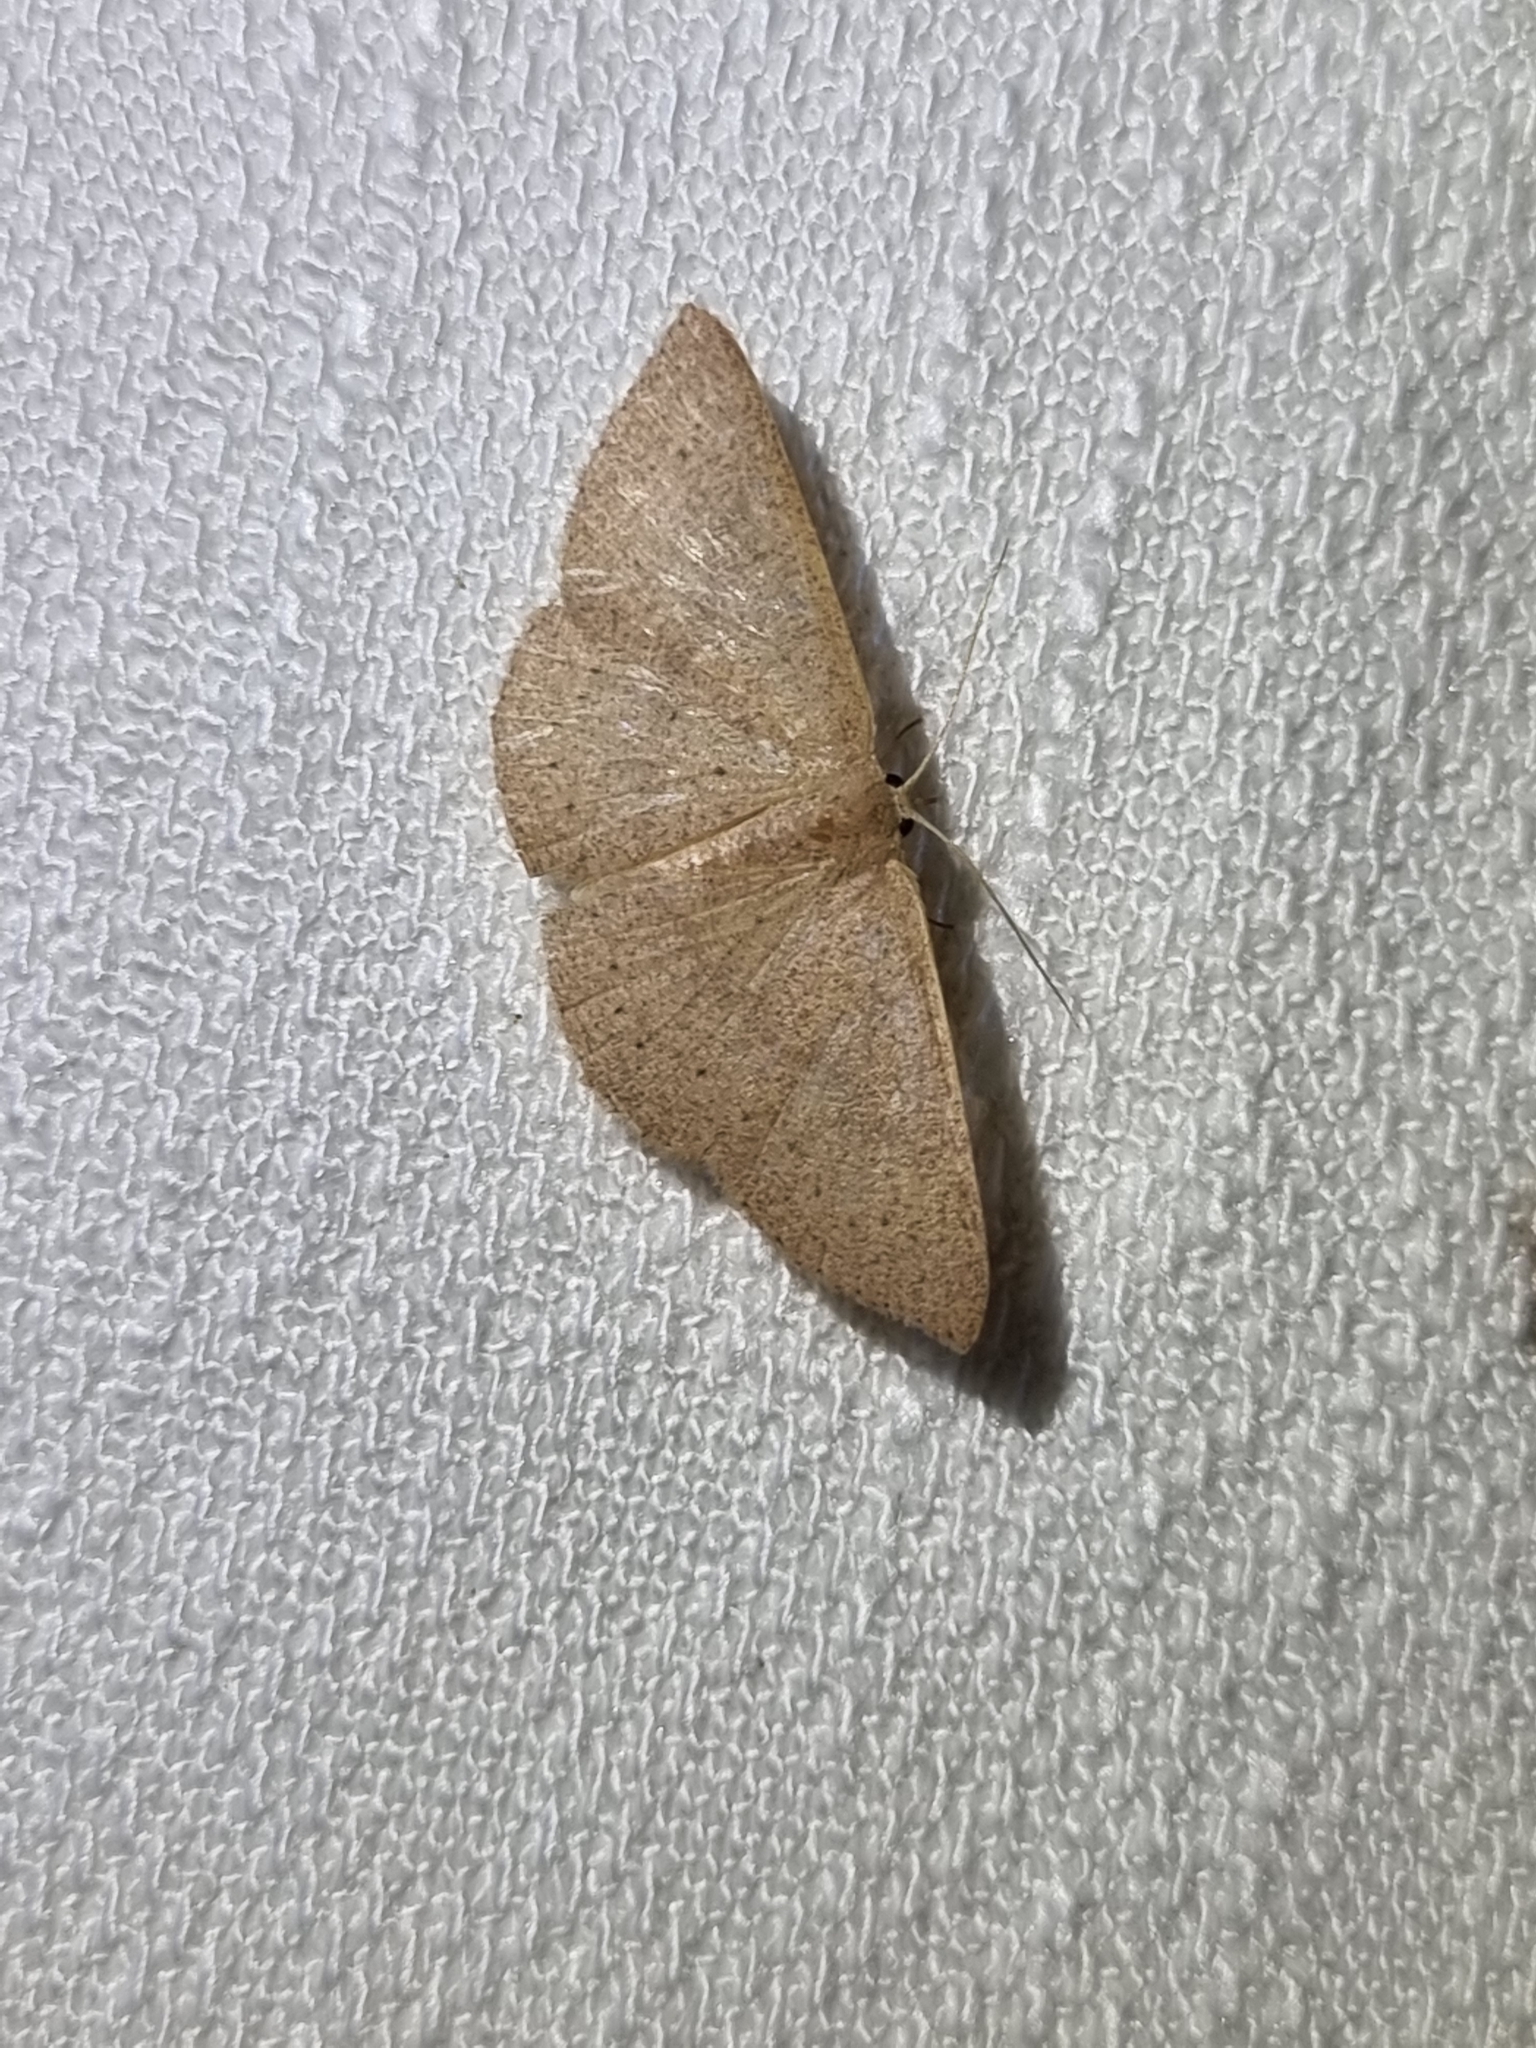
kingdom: Animalia
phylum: Arthropoda
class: Insecta
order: Lepidoptera
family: Geometridae
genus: Cyclophora
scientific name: Cyclophora obstataria
